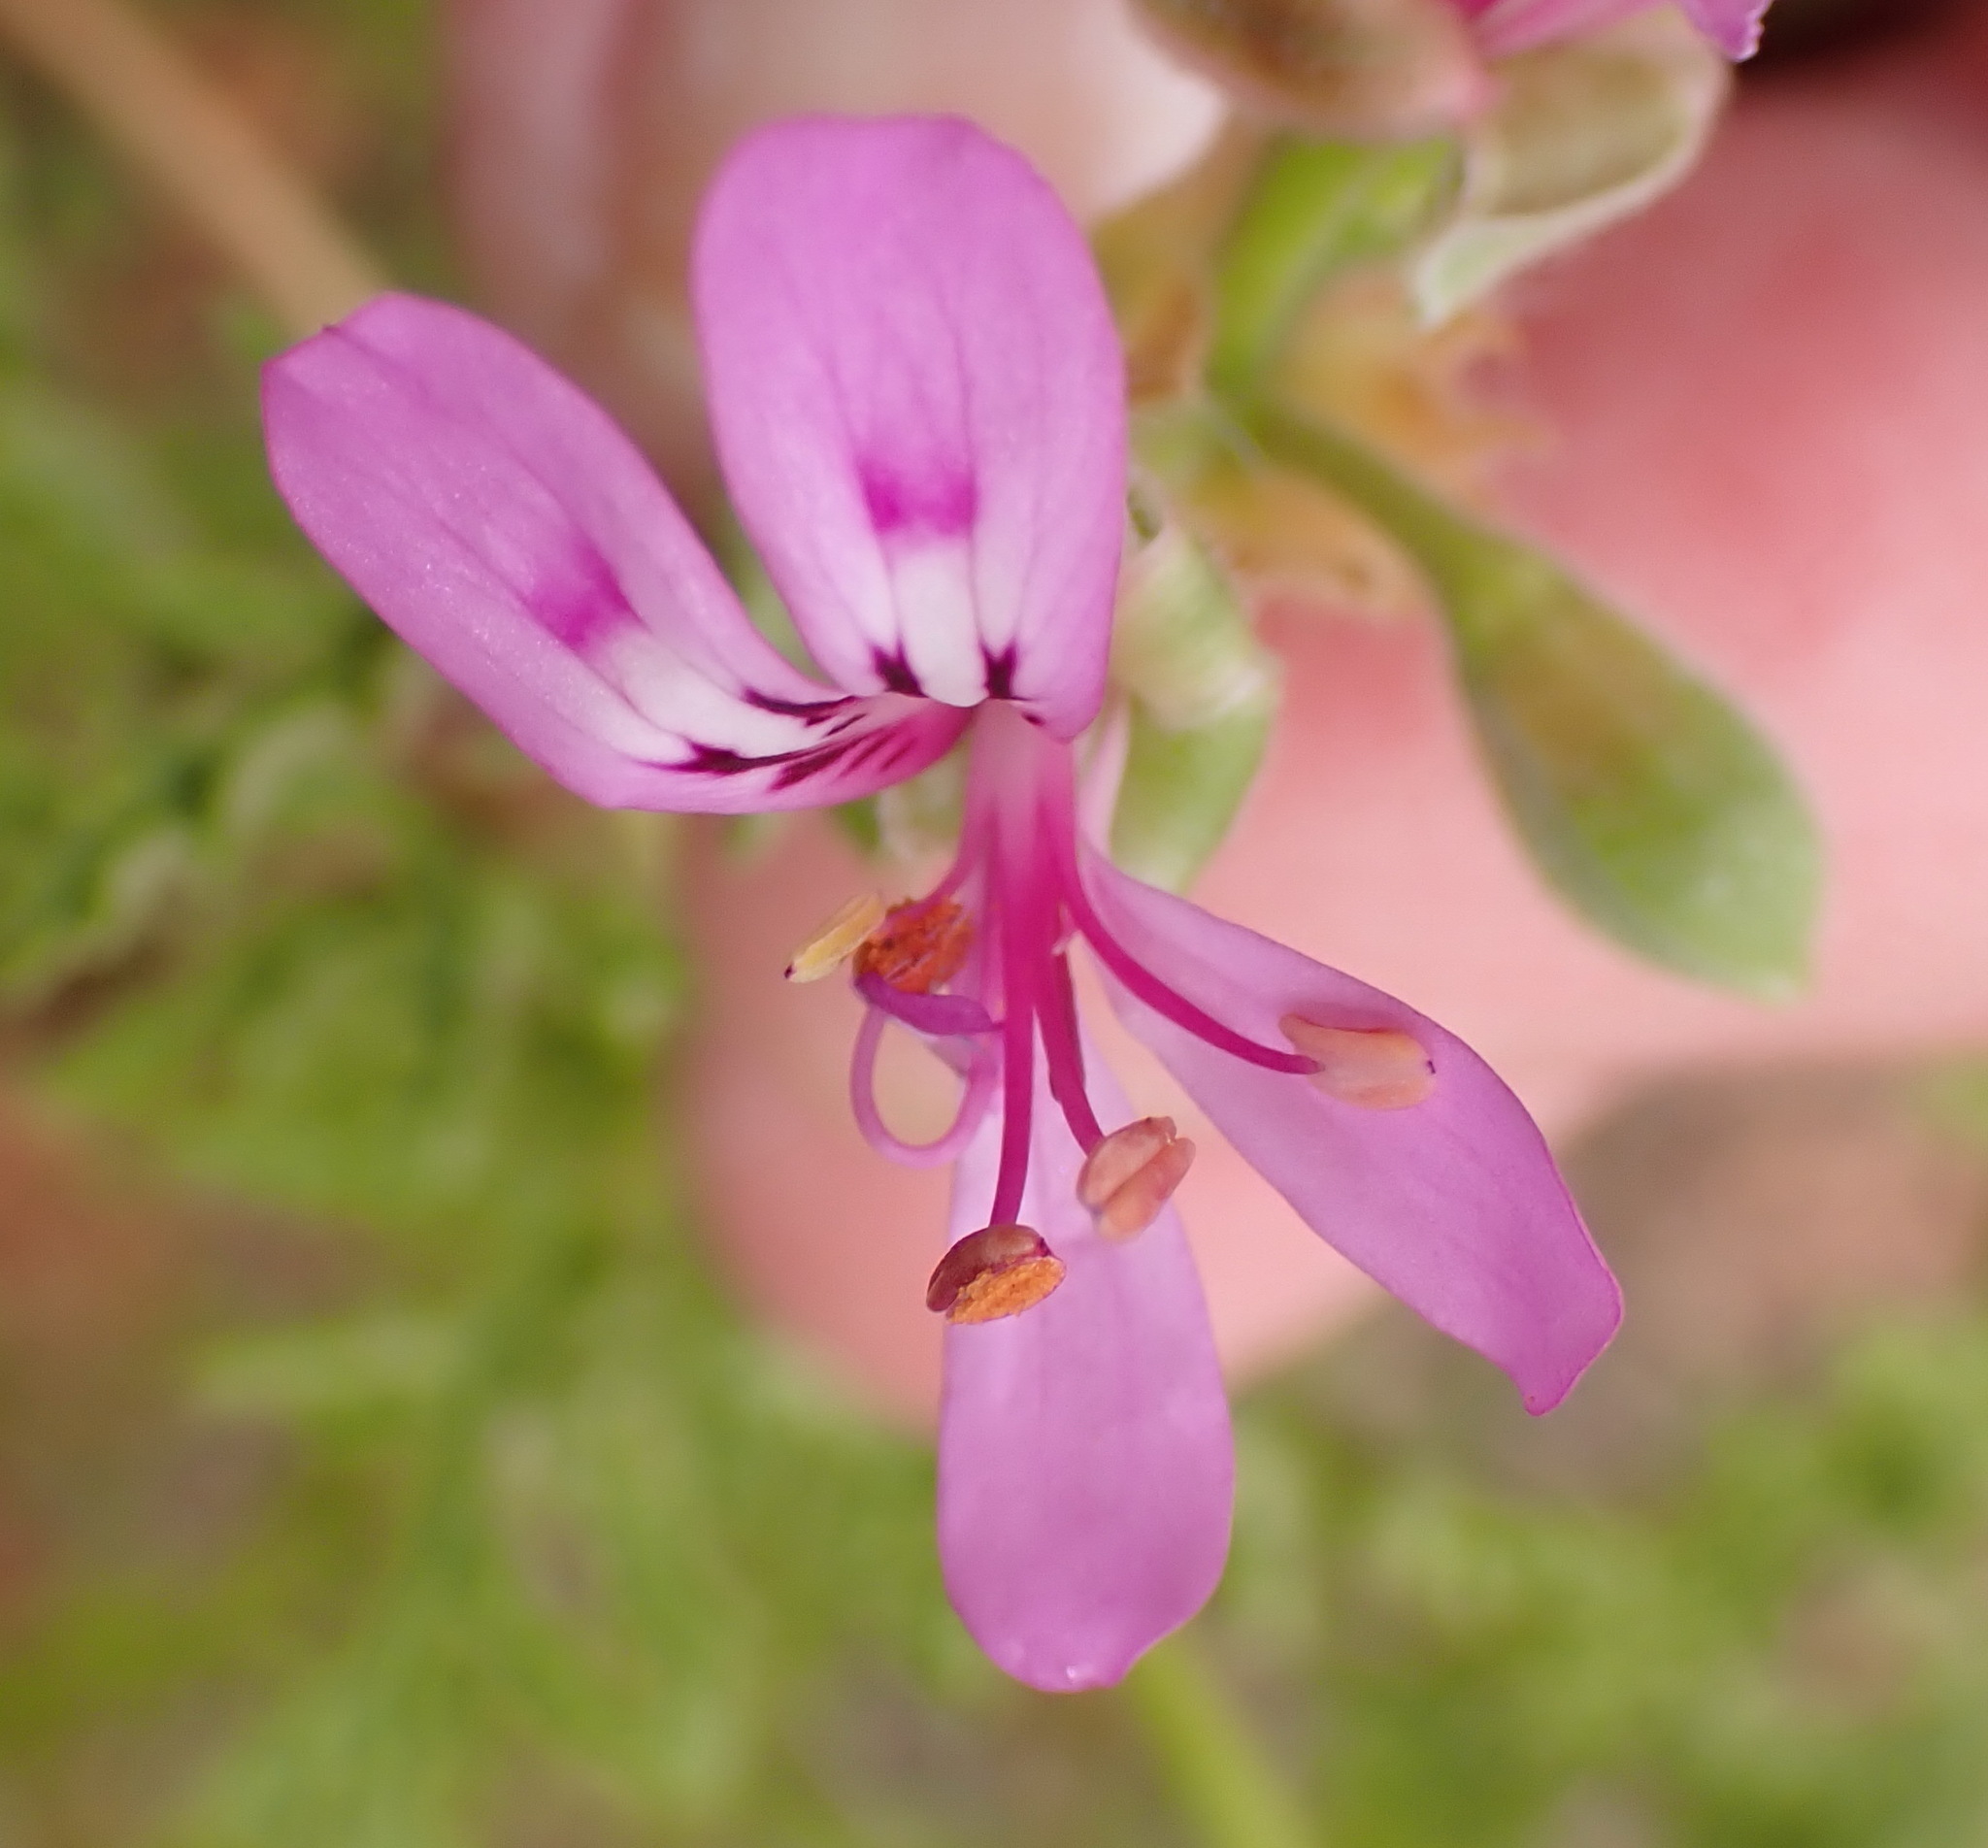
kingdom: Plantae
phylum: Tracheophyta
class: Magnoliopsida
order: Geraniales
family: Geraniaceae
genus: Pelargonium
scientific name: Pelargonium denticulatum
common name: Pine geranium
